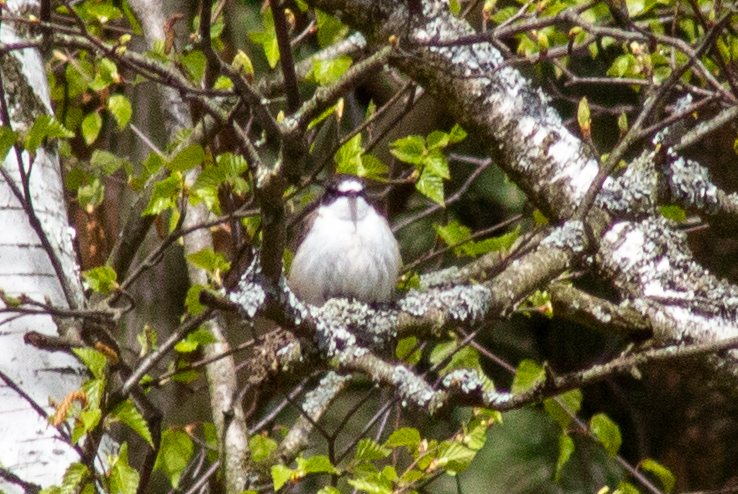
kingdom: Animalia
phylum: Chordata
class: Aves
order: Passeriformes
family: Muscicapidae
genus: Ficedula
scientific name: Ficedula hypoleuca
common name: European pied flycatcher
